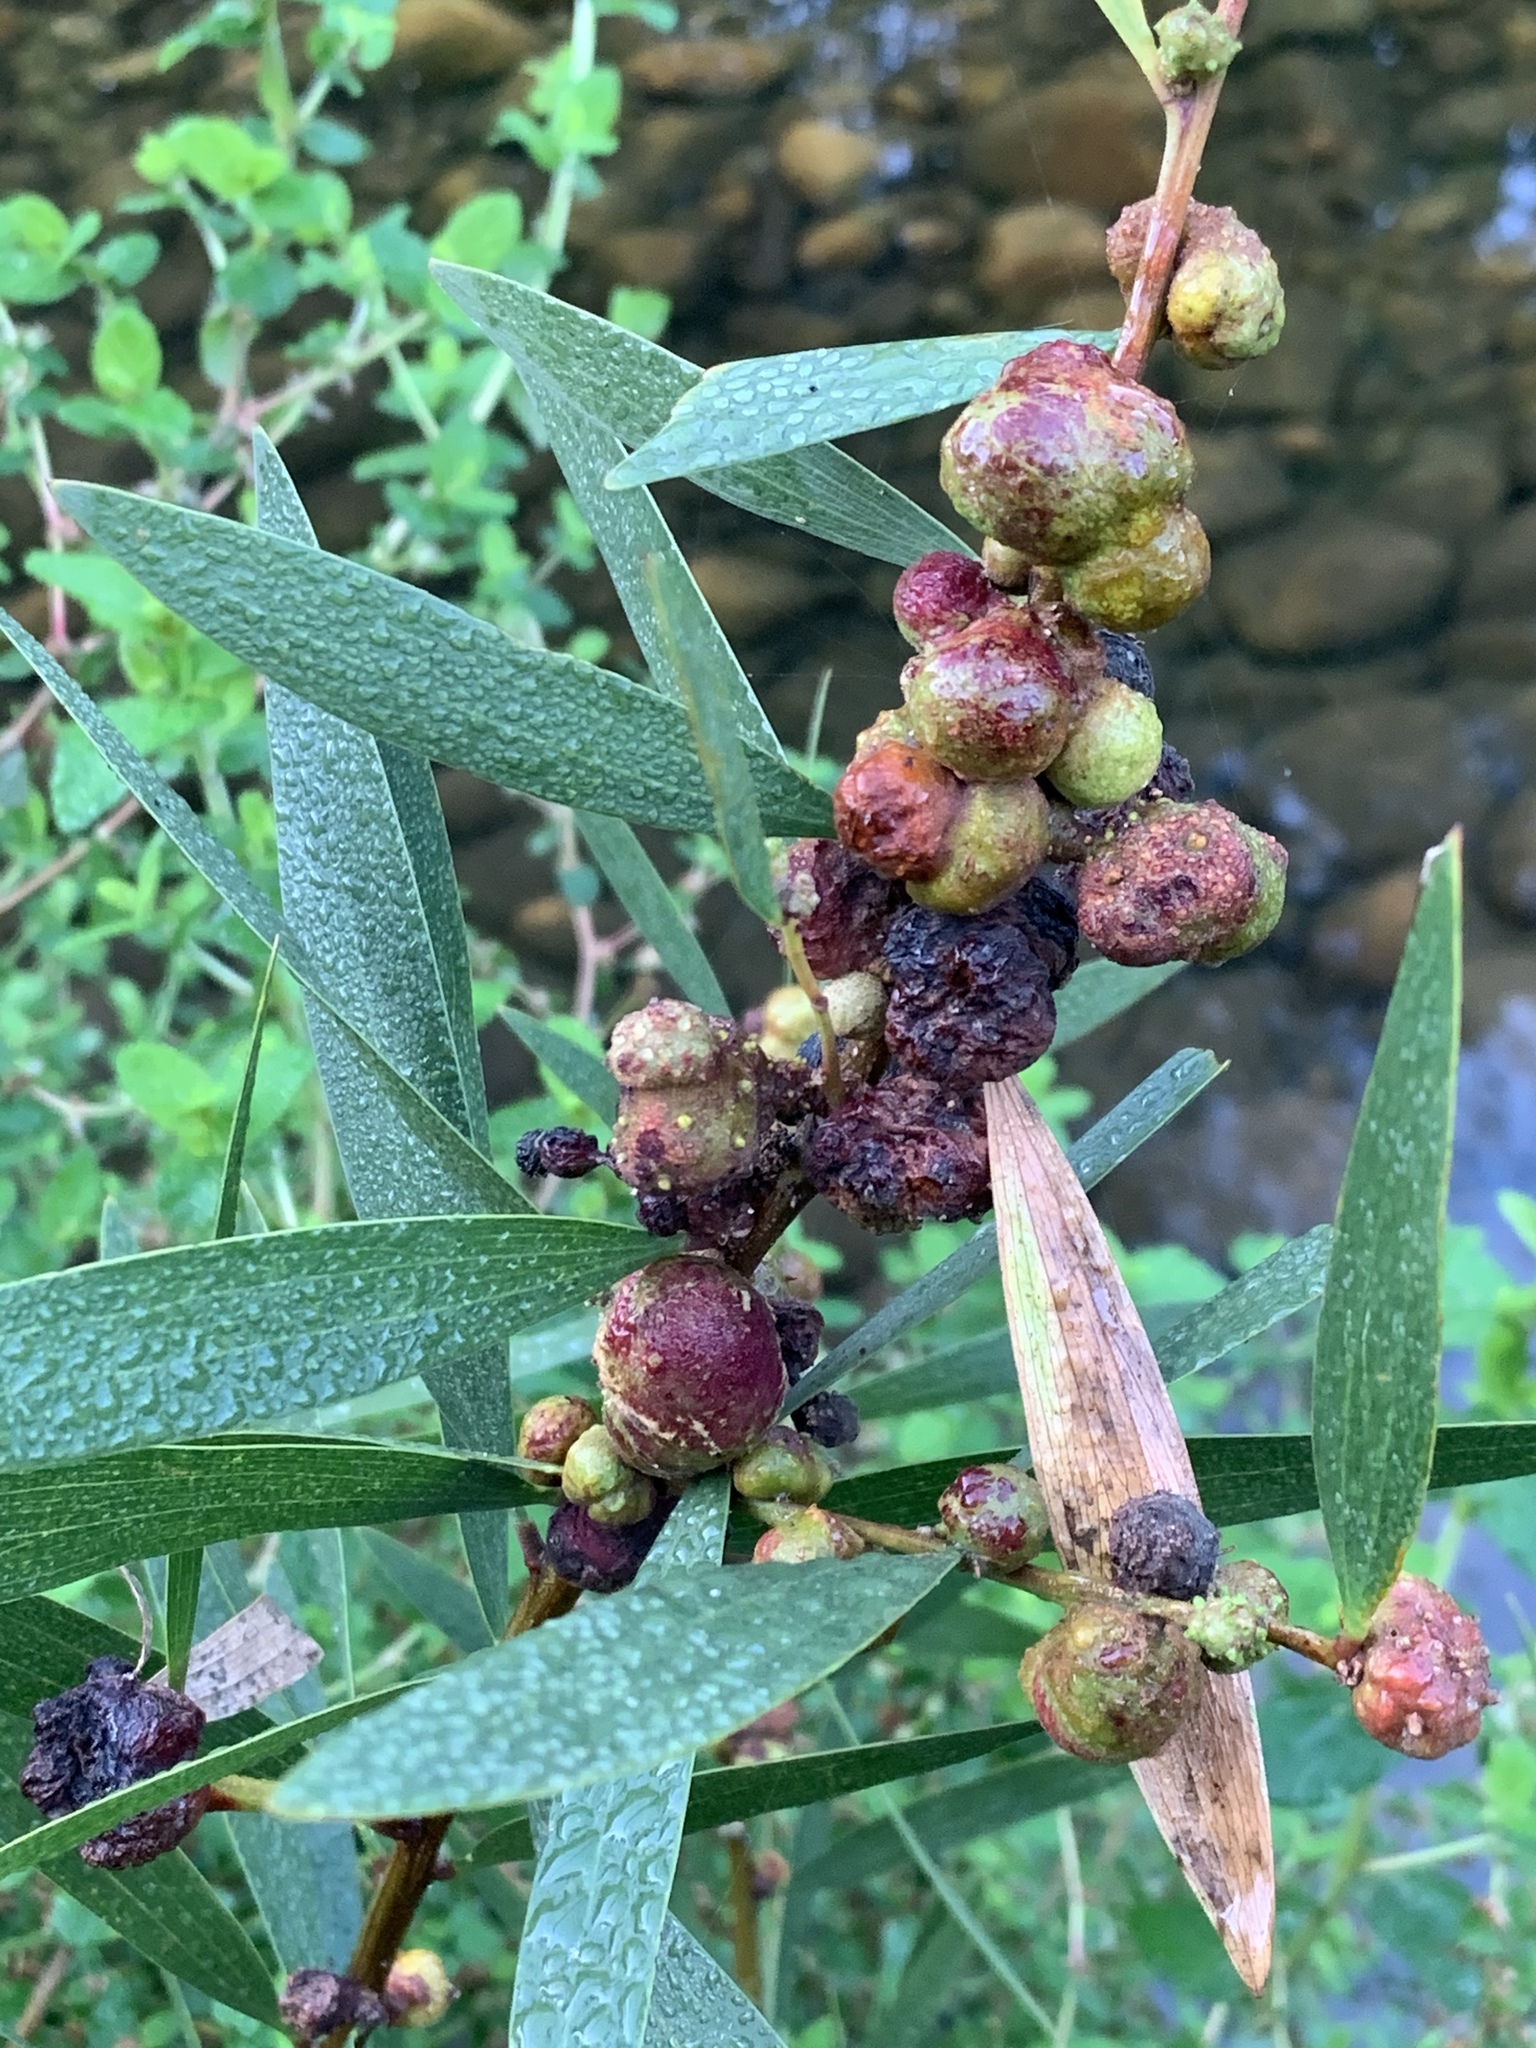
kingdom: Animalia
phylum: Arthropoda
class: Insecta
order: Hymenoptera
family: Pteromalidae
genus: Trichilogaster
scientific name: Trichilogaster acaciaelongifoliae
